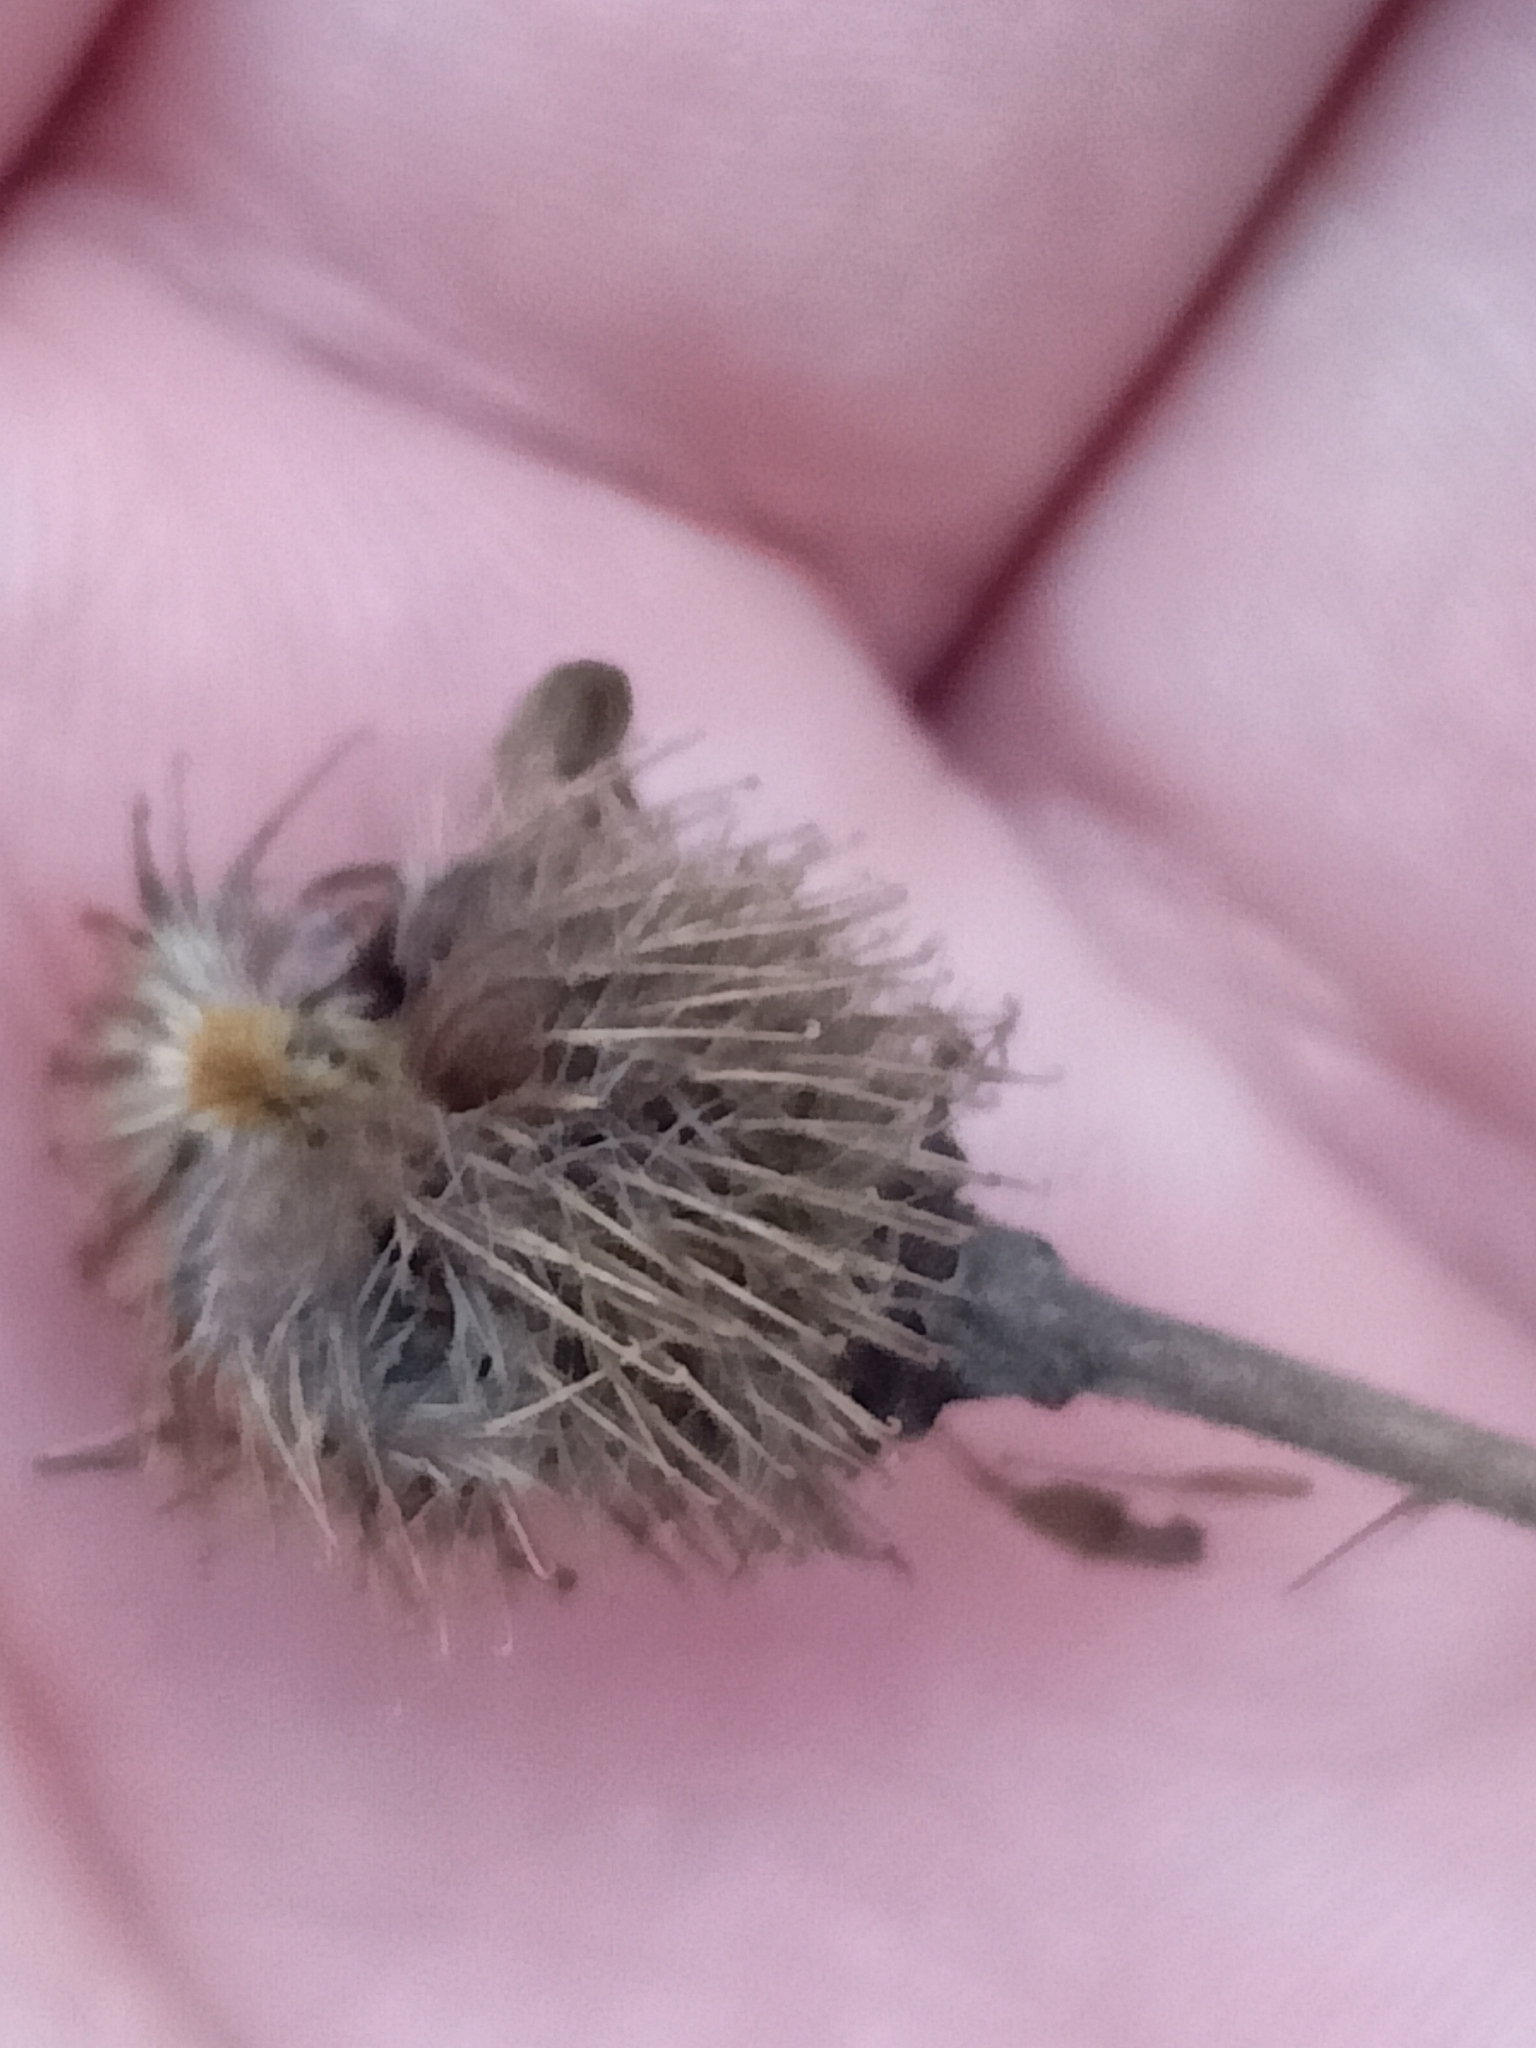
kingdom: Plantae
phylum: Tracheophyta
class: Magnoliopsida
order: Rosales
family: Rosaceae
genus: Geum
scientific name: Geum aleppicum
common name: Yellow avens
